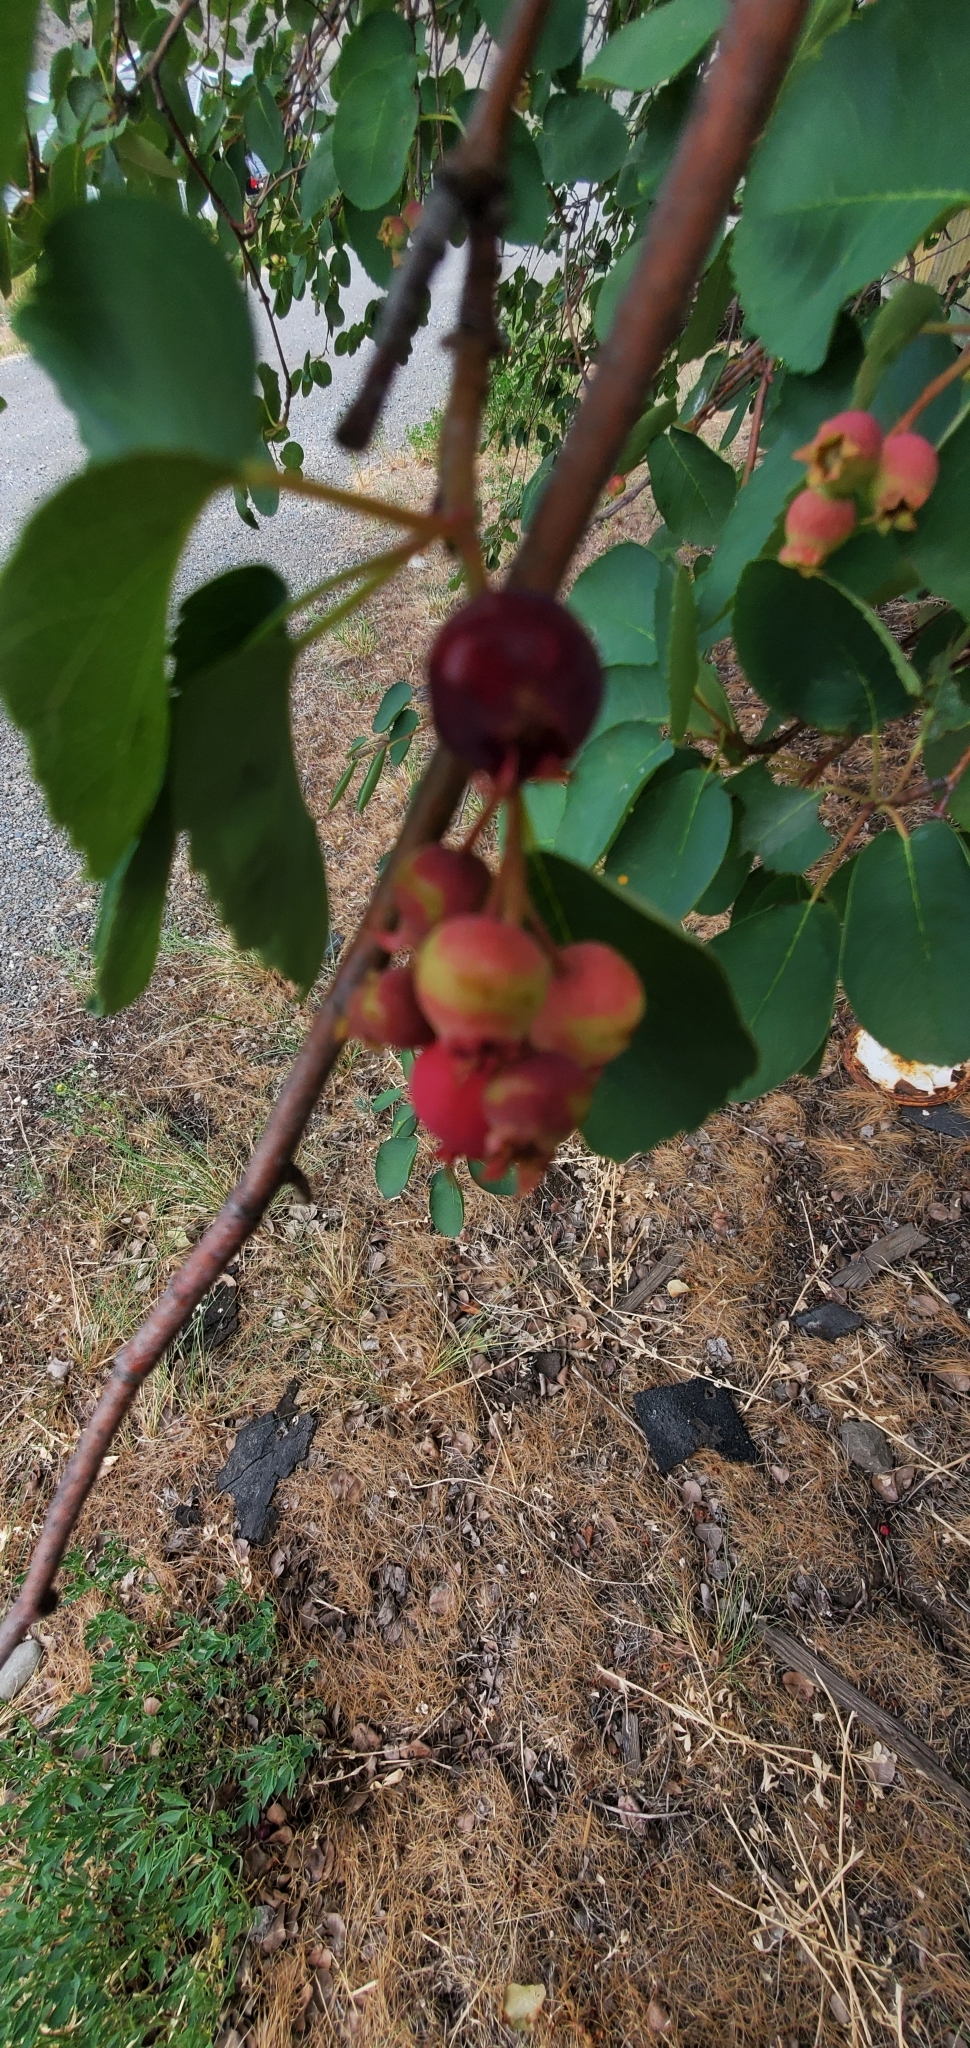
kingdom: Plantae
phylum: Tracheophyta
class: Magnoliopsida
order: Rosales
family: Rosaceae
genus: Amelanchier
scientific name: Amelanchier alnifolia
